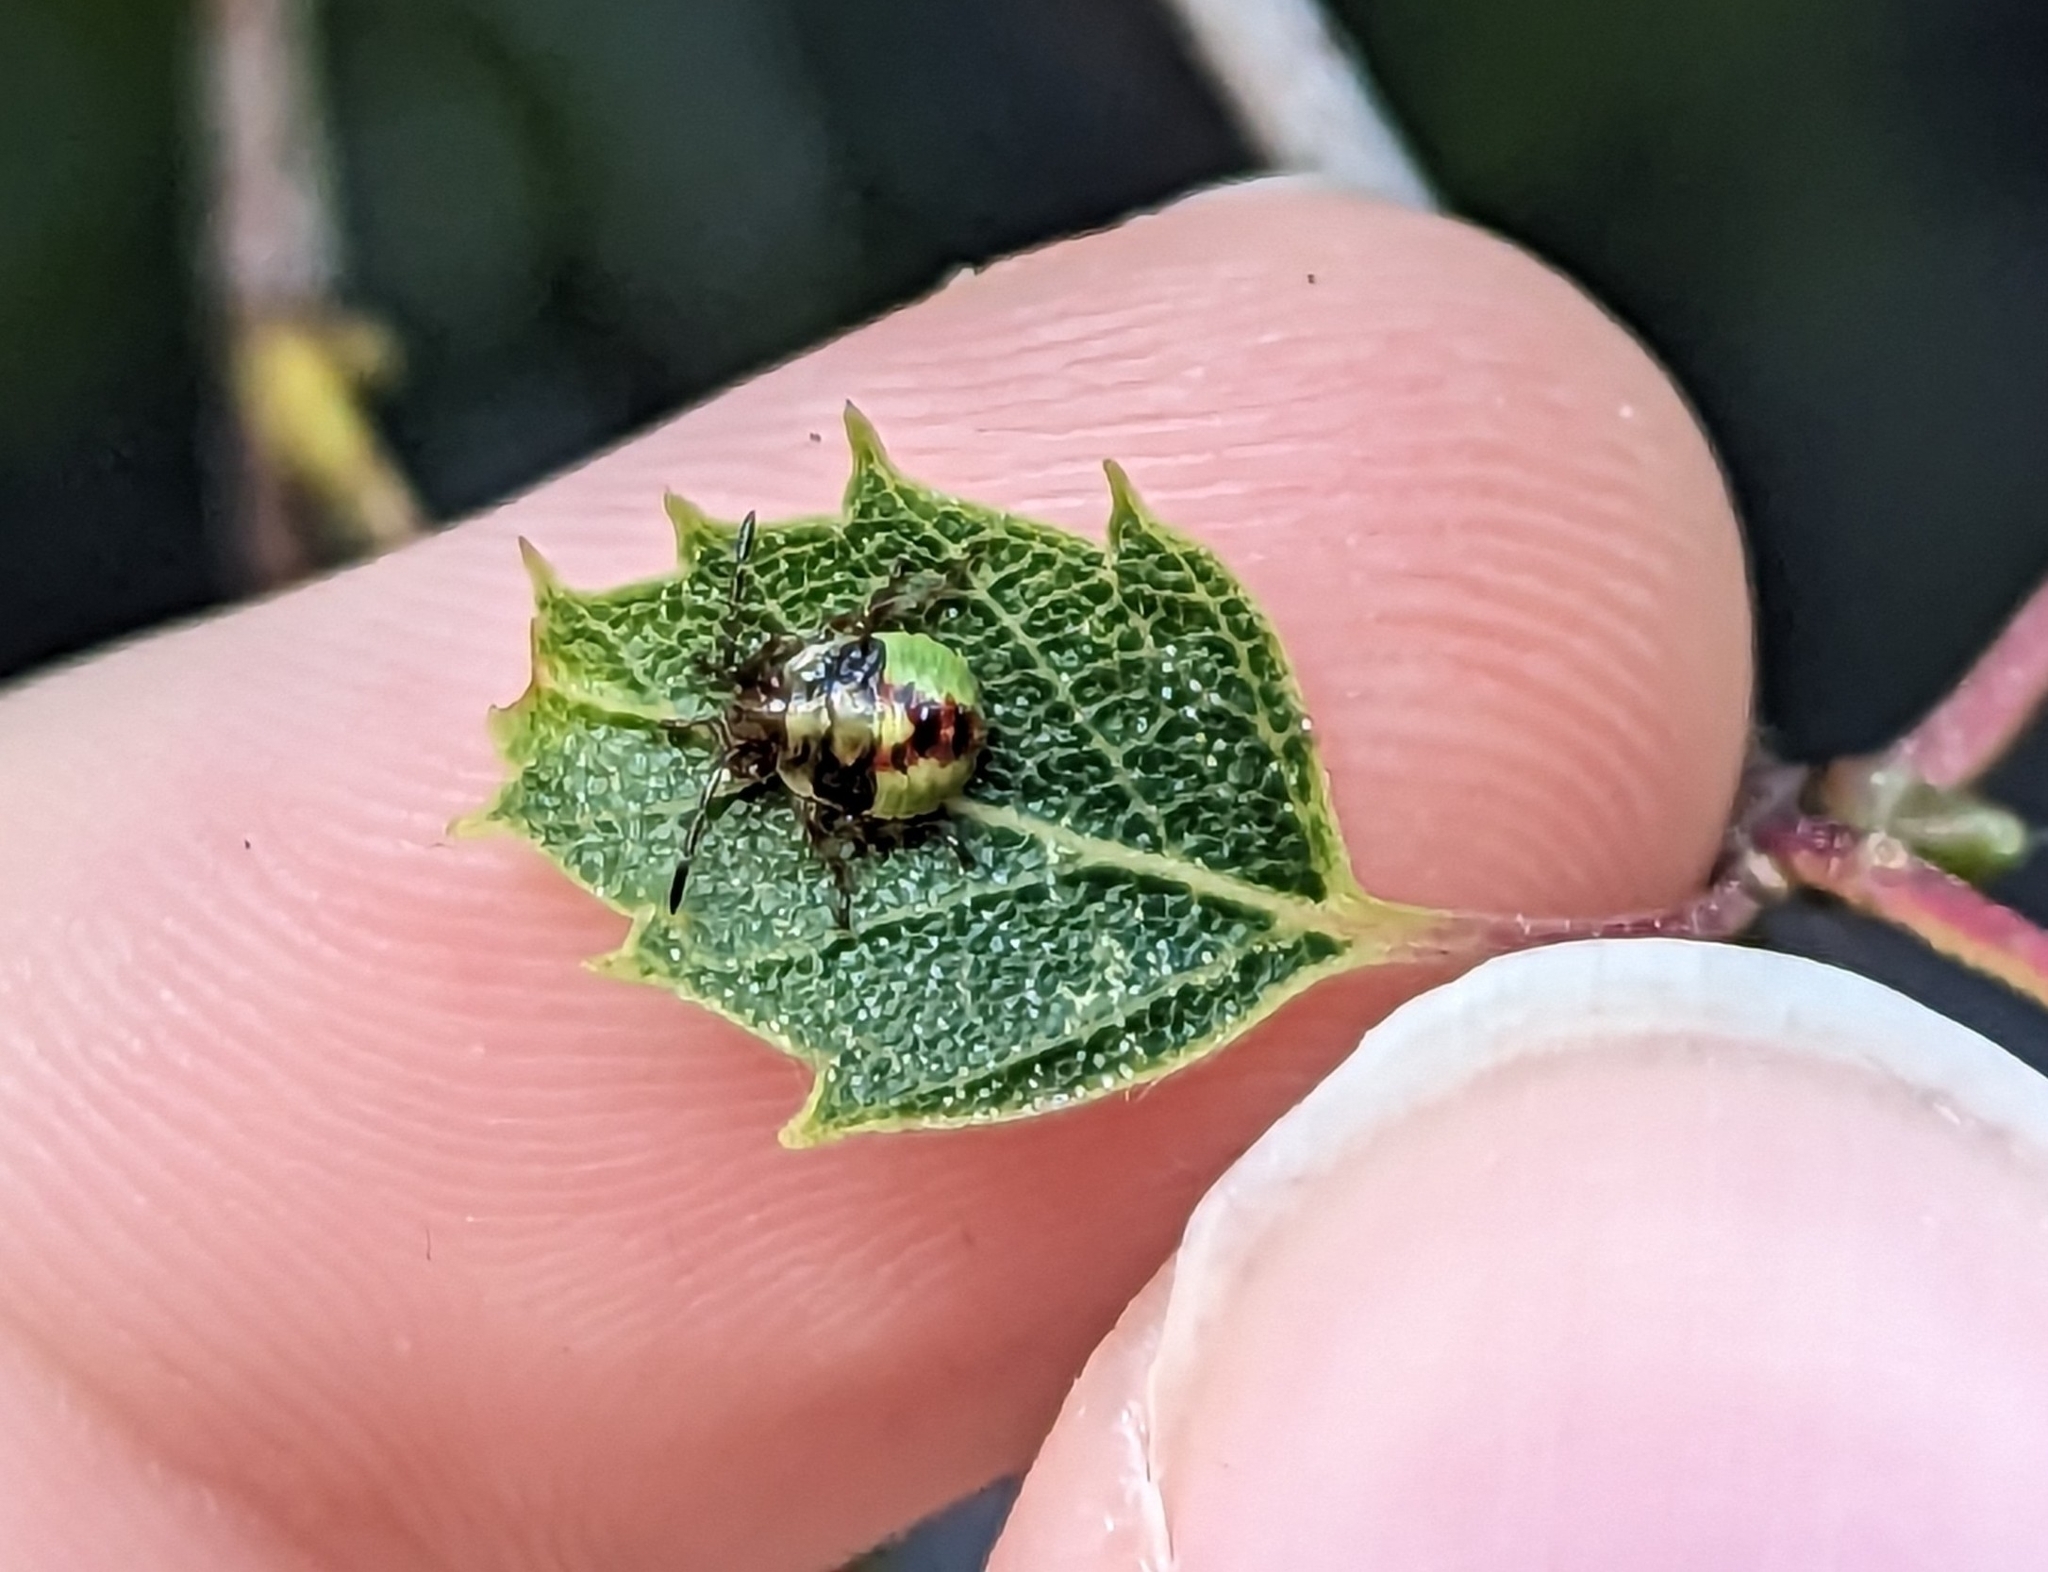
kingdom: Animalia
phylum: Arthropoda
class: Insecta
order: Hemiptera
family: Acanthosomatidae
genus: Elasmostethus
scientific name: Elasmostethus interstinctus
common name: Birch shieldbug
